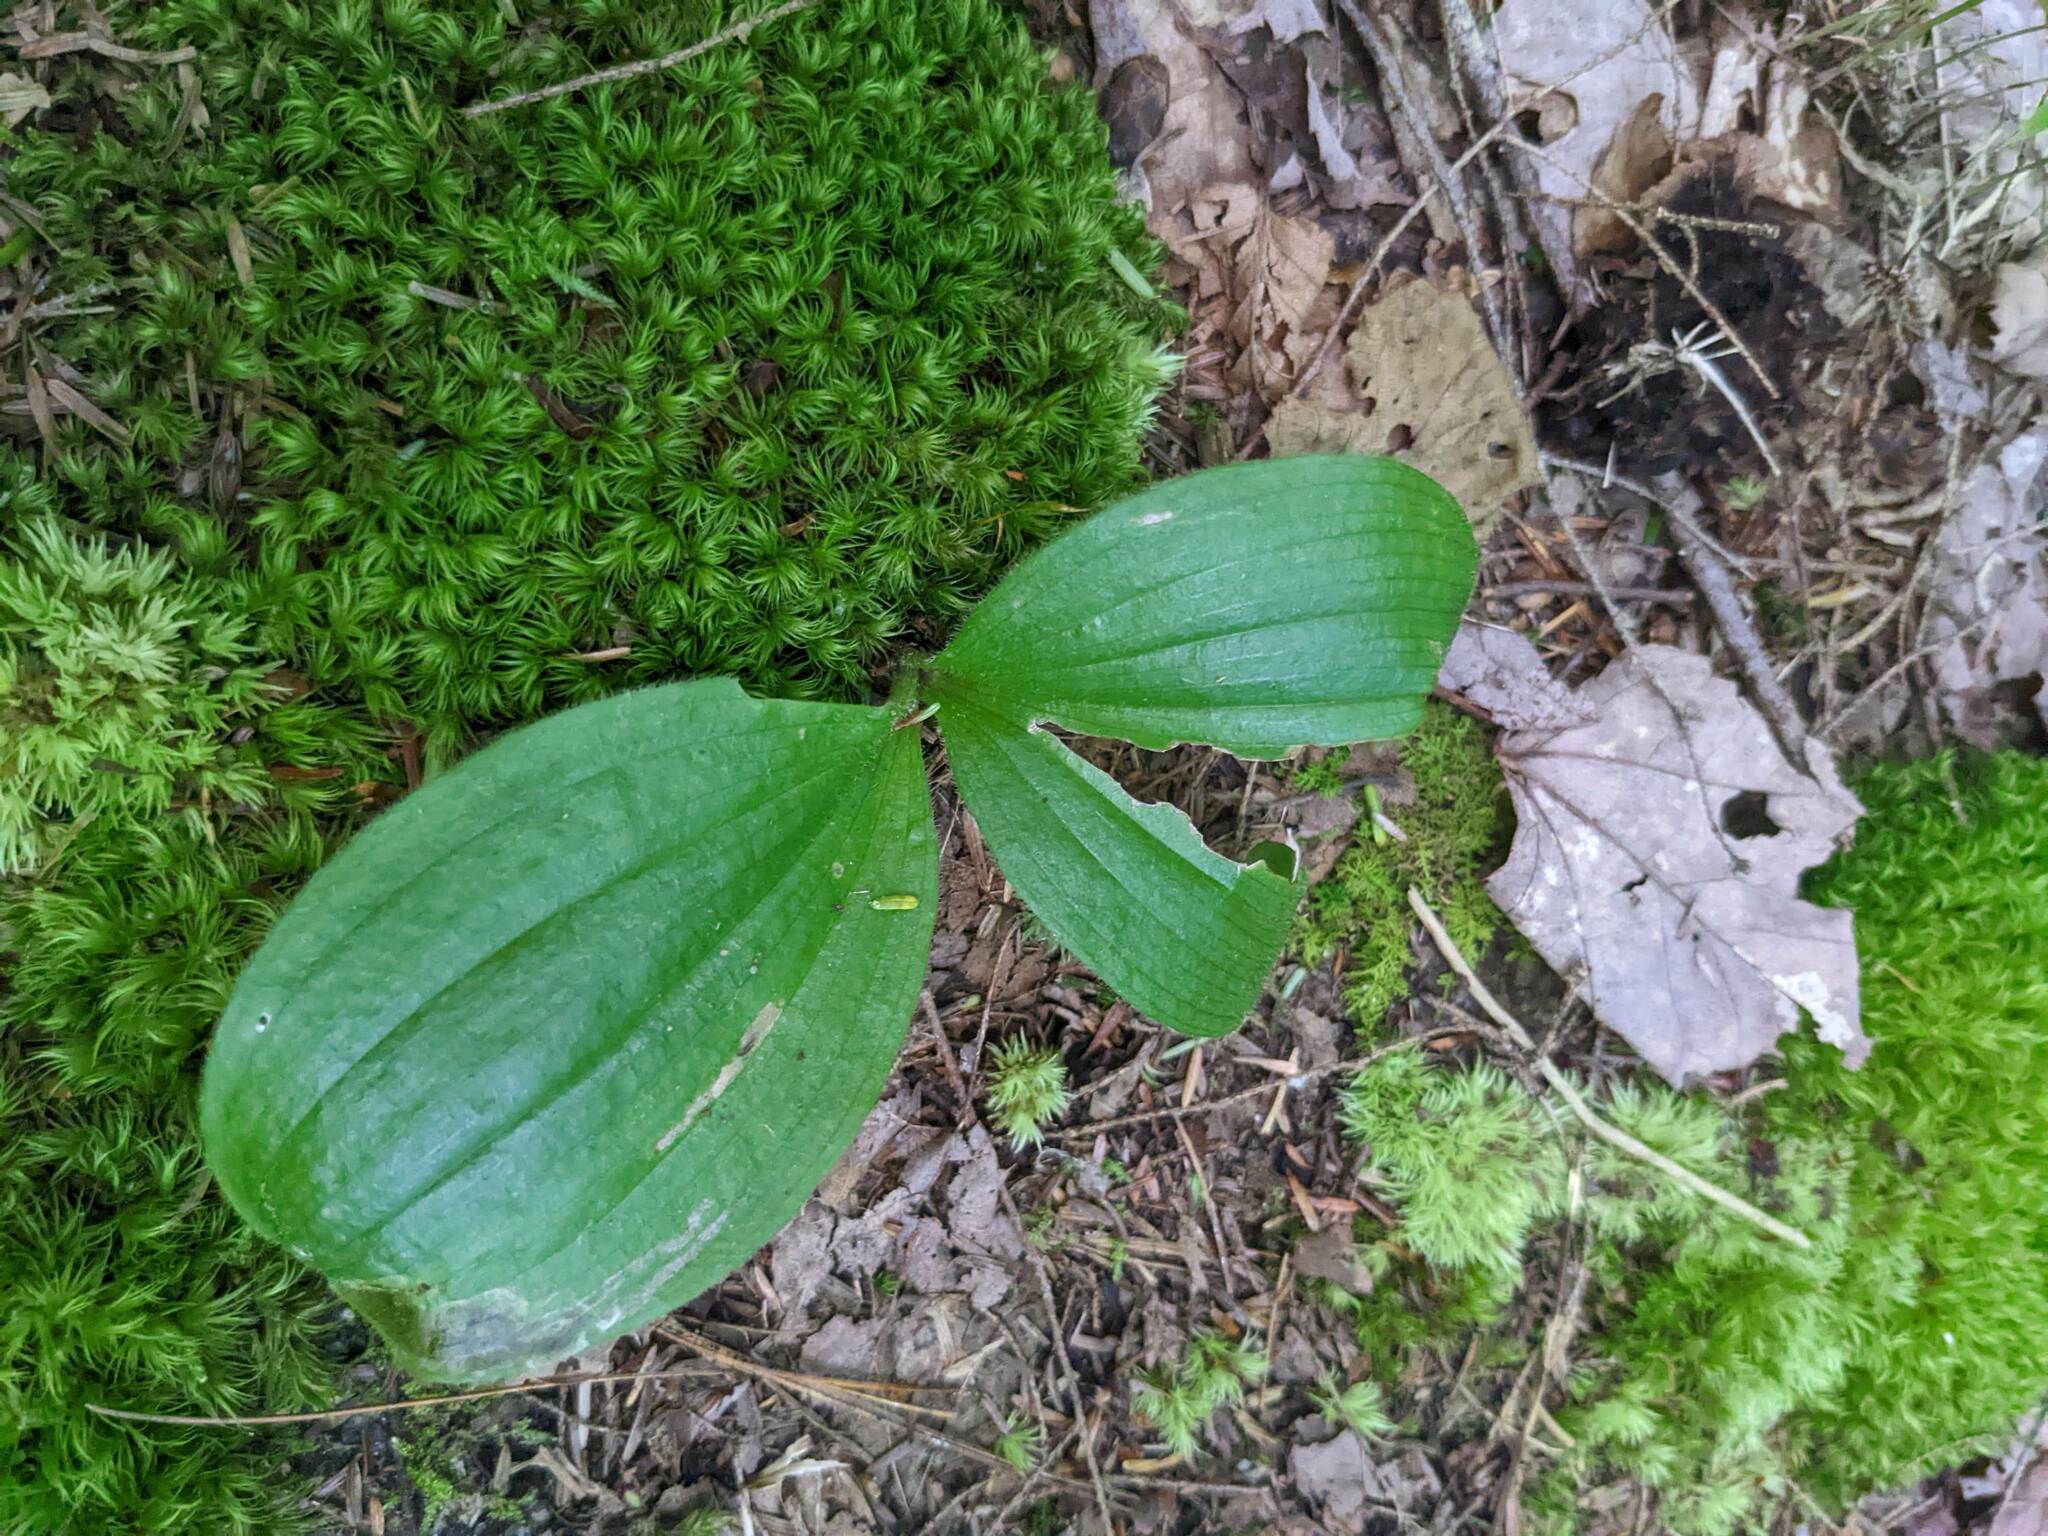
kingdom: Plantae
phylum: Tracheophyta
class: Liliopsida
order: Asparagales
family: Orchidaceae
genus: Cypripedium
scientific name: Cypripedium acaule
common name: Pink lady's-slipper
